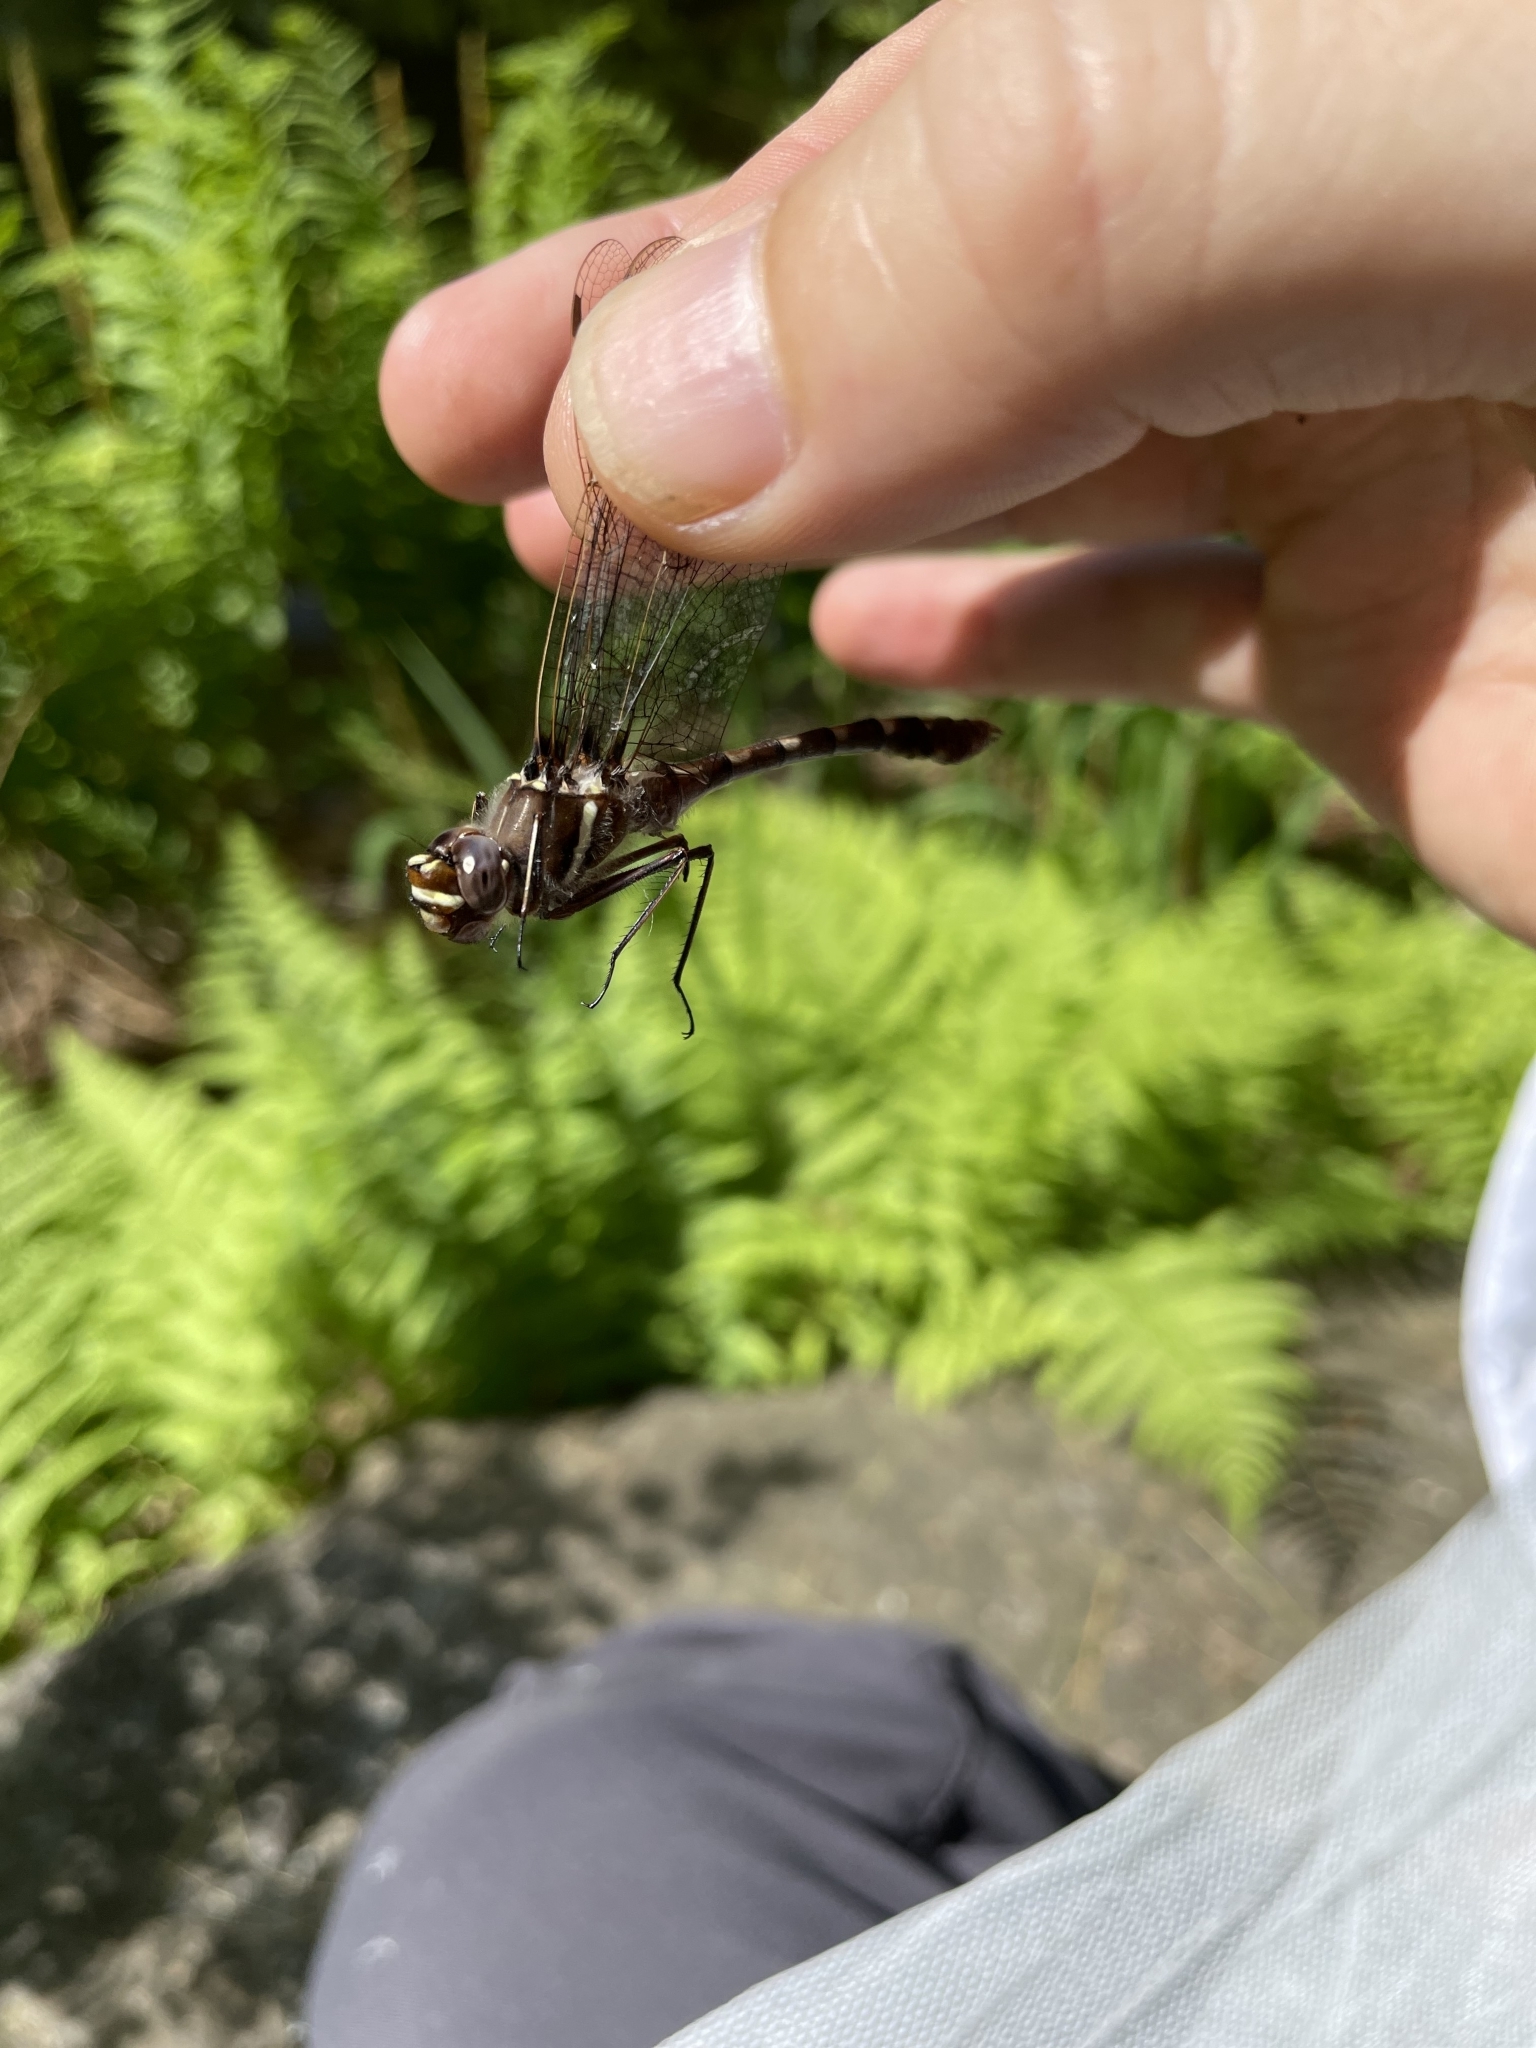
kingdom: Animalia
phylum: Arthropoda
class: Insecta
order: Odonata
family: Macromiidae
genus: Didymops
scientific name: Didymops transversa
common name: Stream cruiser
